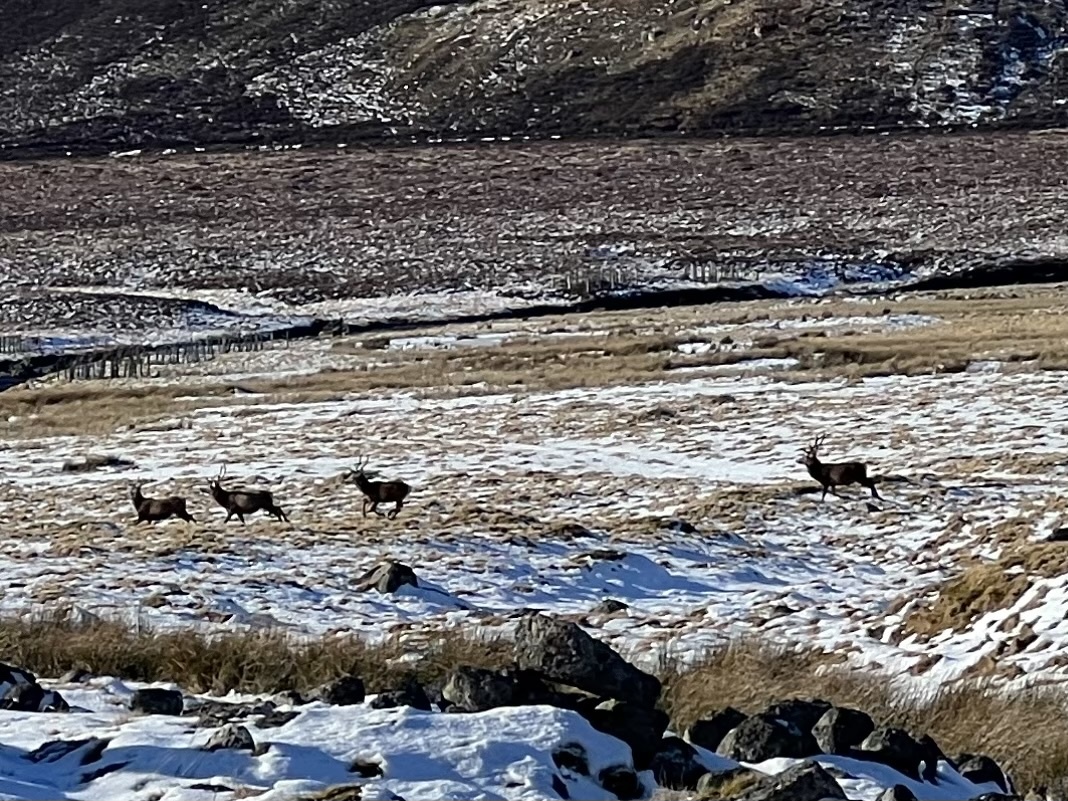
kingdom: Animalia
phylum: Chordata
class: Mammalia
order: Artiodactyla
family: Cervidae
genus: Cervus
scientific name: Cervus elaphus
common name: Red deer
